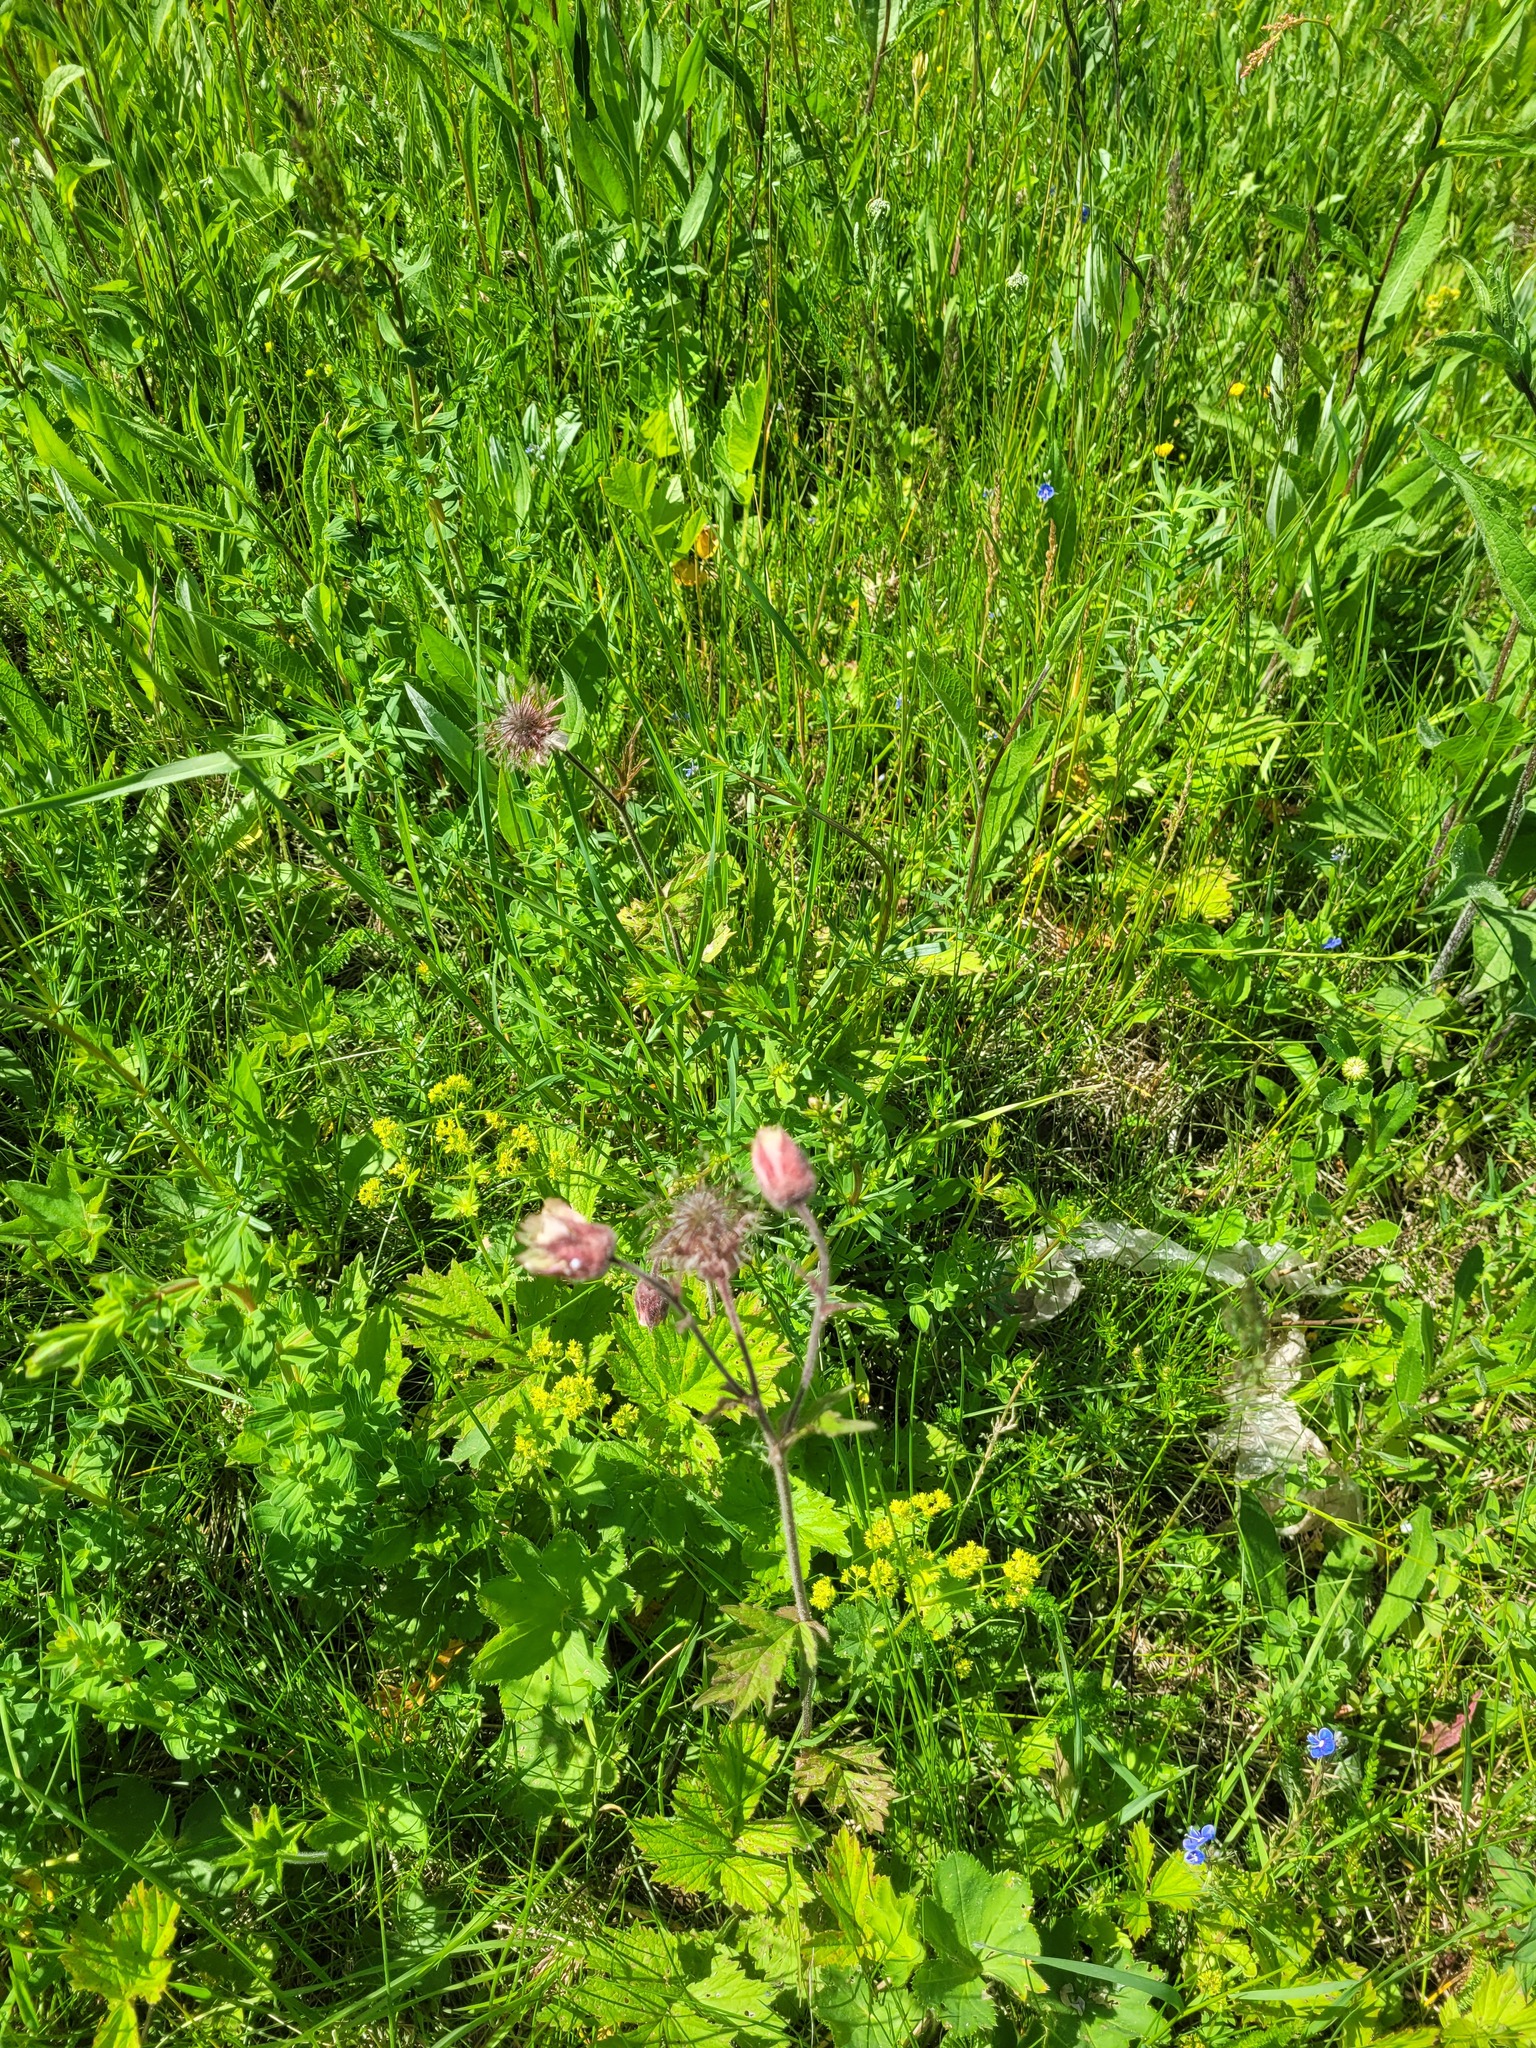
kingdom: Plantae
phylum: Tracheophyta
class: Magnoliopsida
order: Rosales
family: Rosaceae
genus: Geum
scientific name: Geum rivale
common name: Water avens
